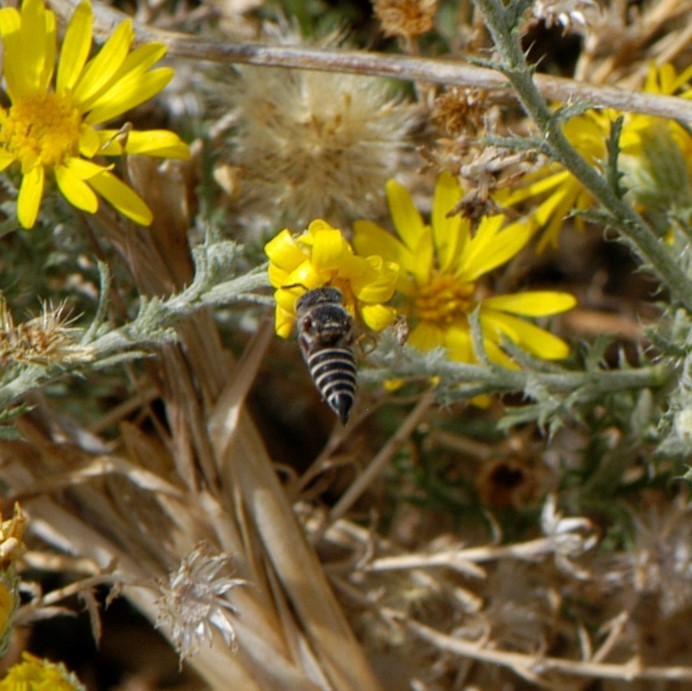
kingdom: Animalia
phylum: Arthropoda
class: Insecta
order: Hymenoptera
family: Megachilidae
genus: Coelioxys
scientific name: Coelioxys
